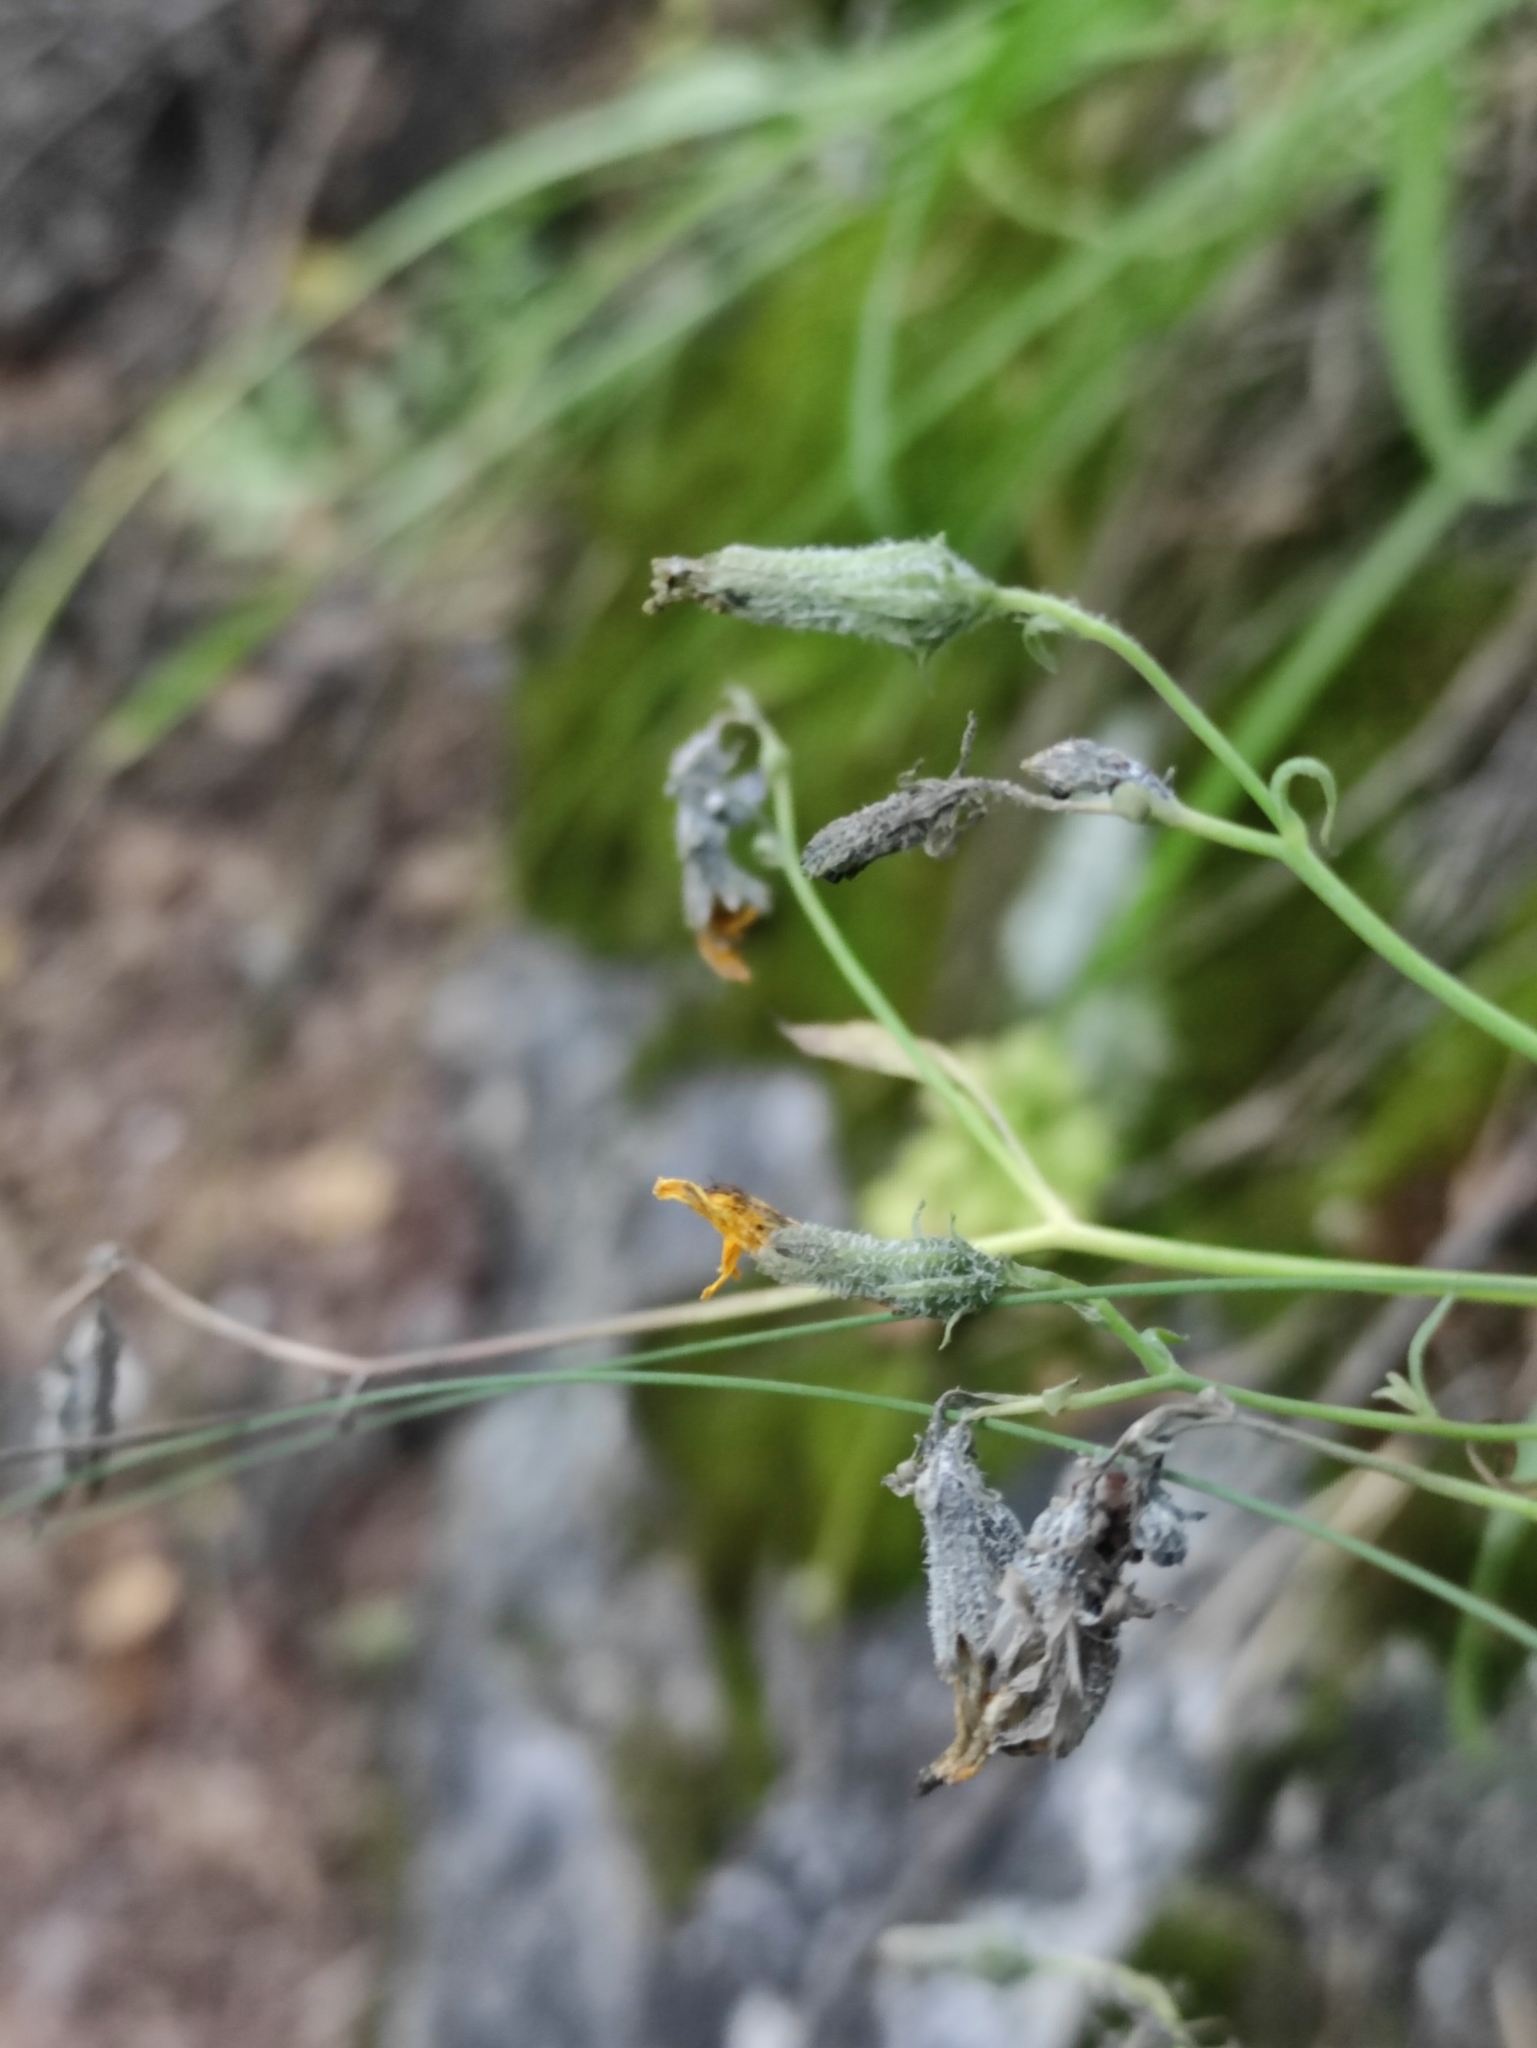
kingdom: Plantae
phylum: Tracheophyta
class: Magnoliopsida
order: Asterales
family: Asteraceae
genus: Crepidiastrum
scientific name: Crepidiastrum tenuifolium
